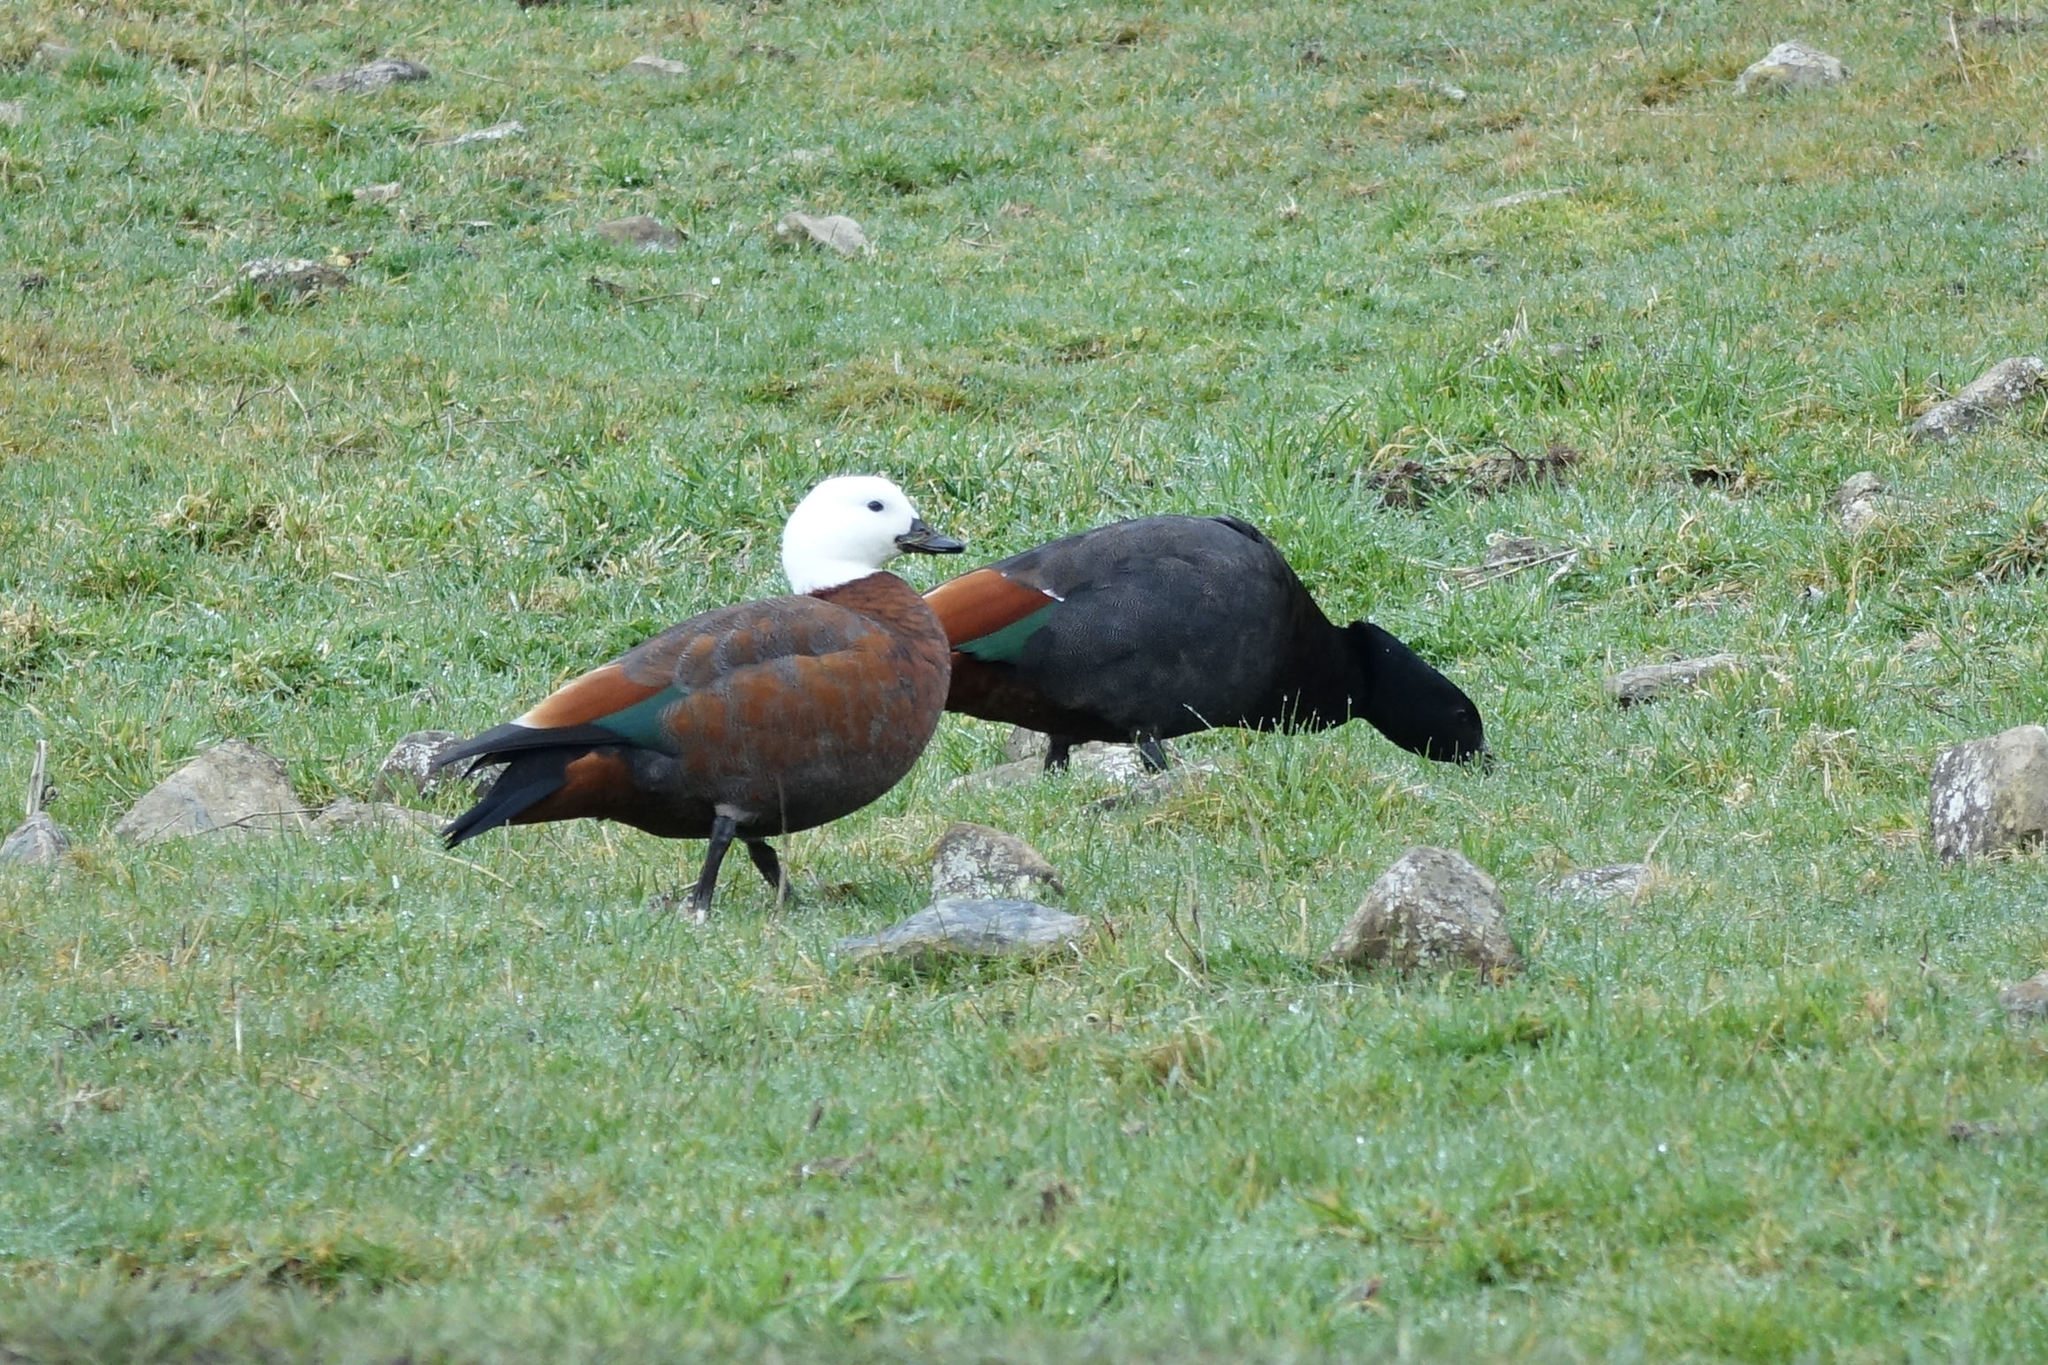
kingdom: Animalia
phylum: Chordata
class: Aves
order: Anseriformes
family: Anatidae
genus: Tadorna
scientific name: Tadorna variegata
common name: Paradise shelduck
